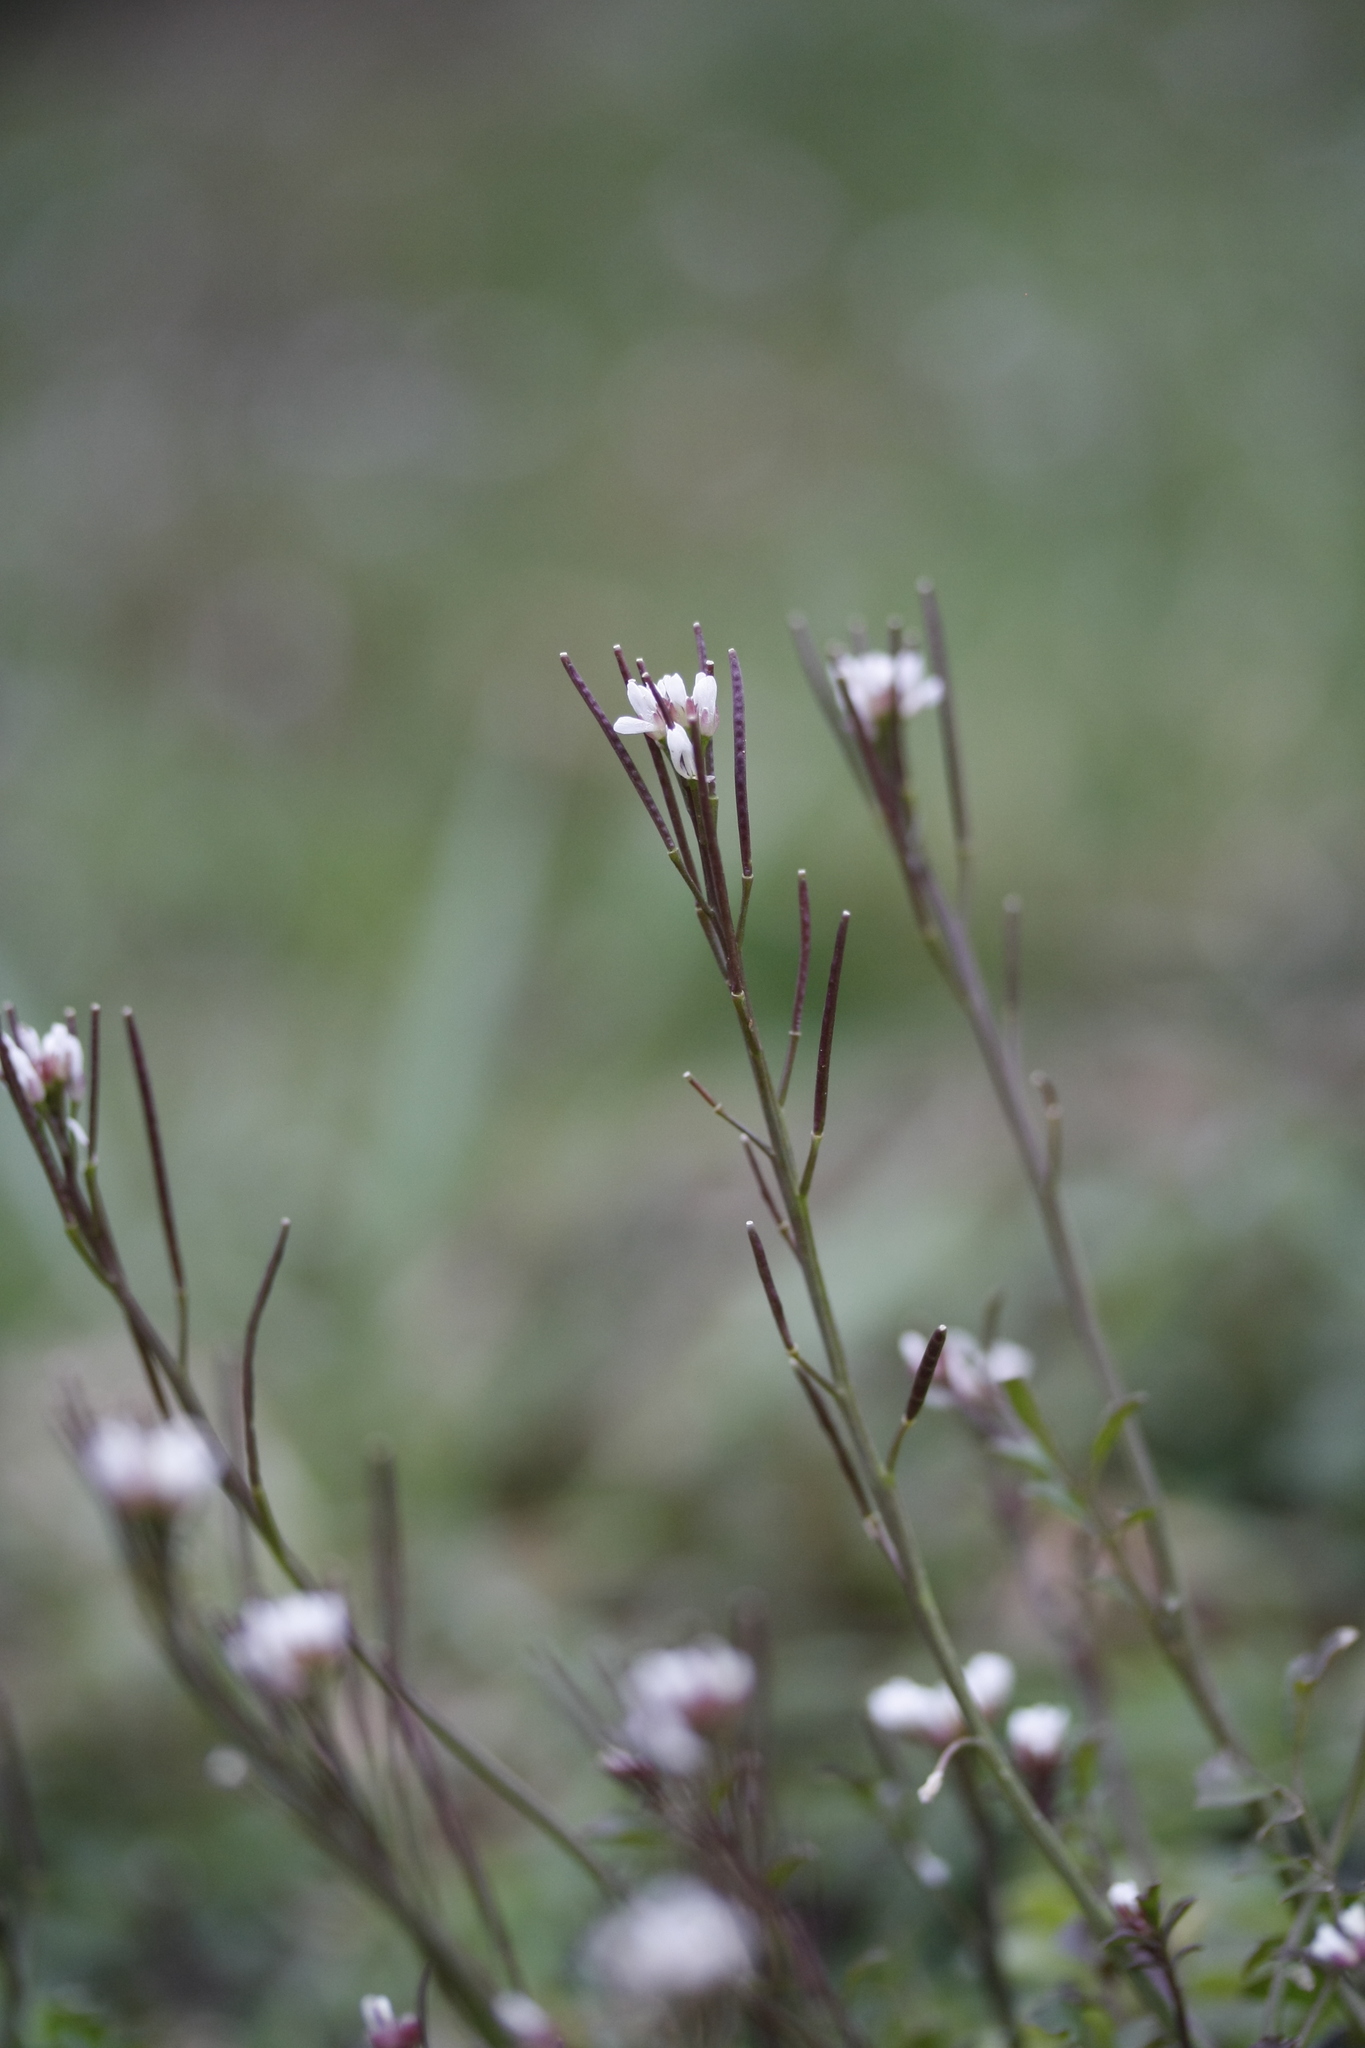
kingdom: Plantae
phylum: Tracheophyta
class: Magnoliopsida
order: Brassicales
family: Brassicaceae
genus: Cardamine
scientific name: Cardamine hirsuta
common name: Hairy bittercress
